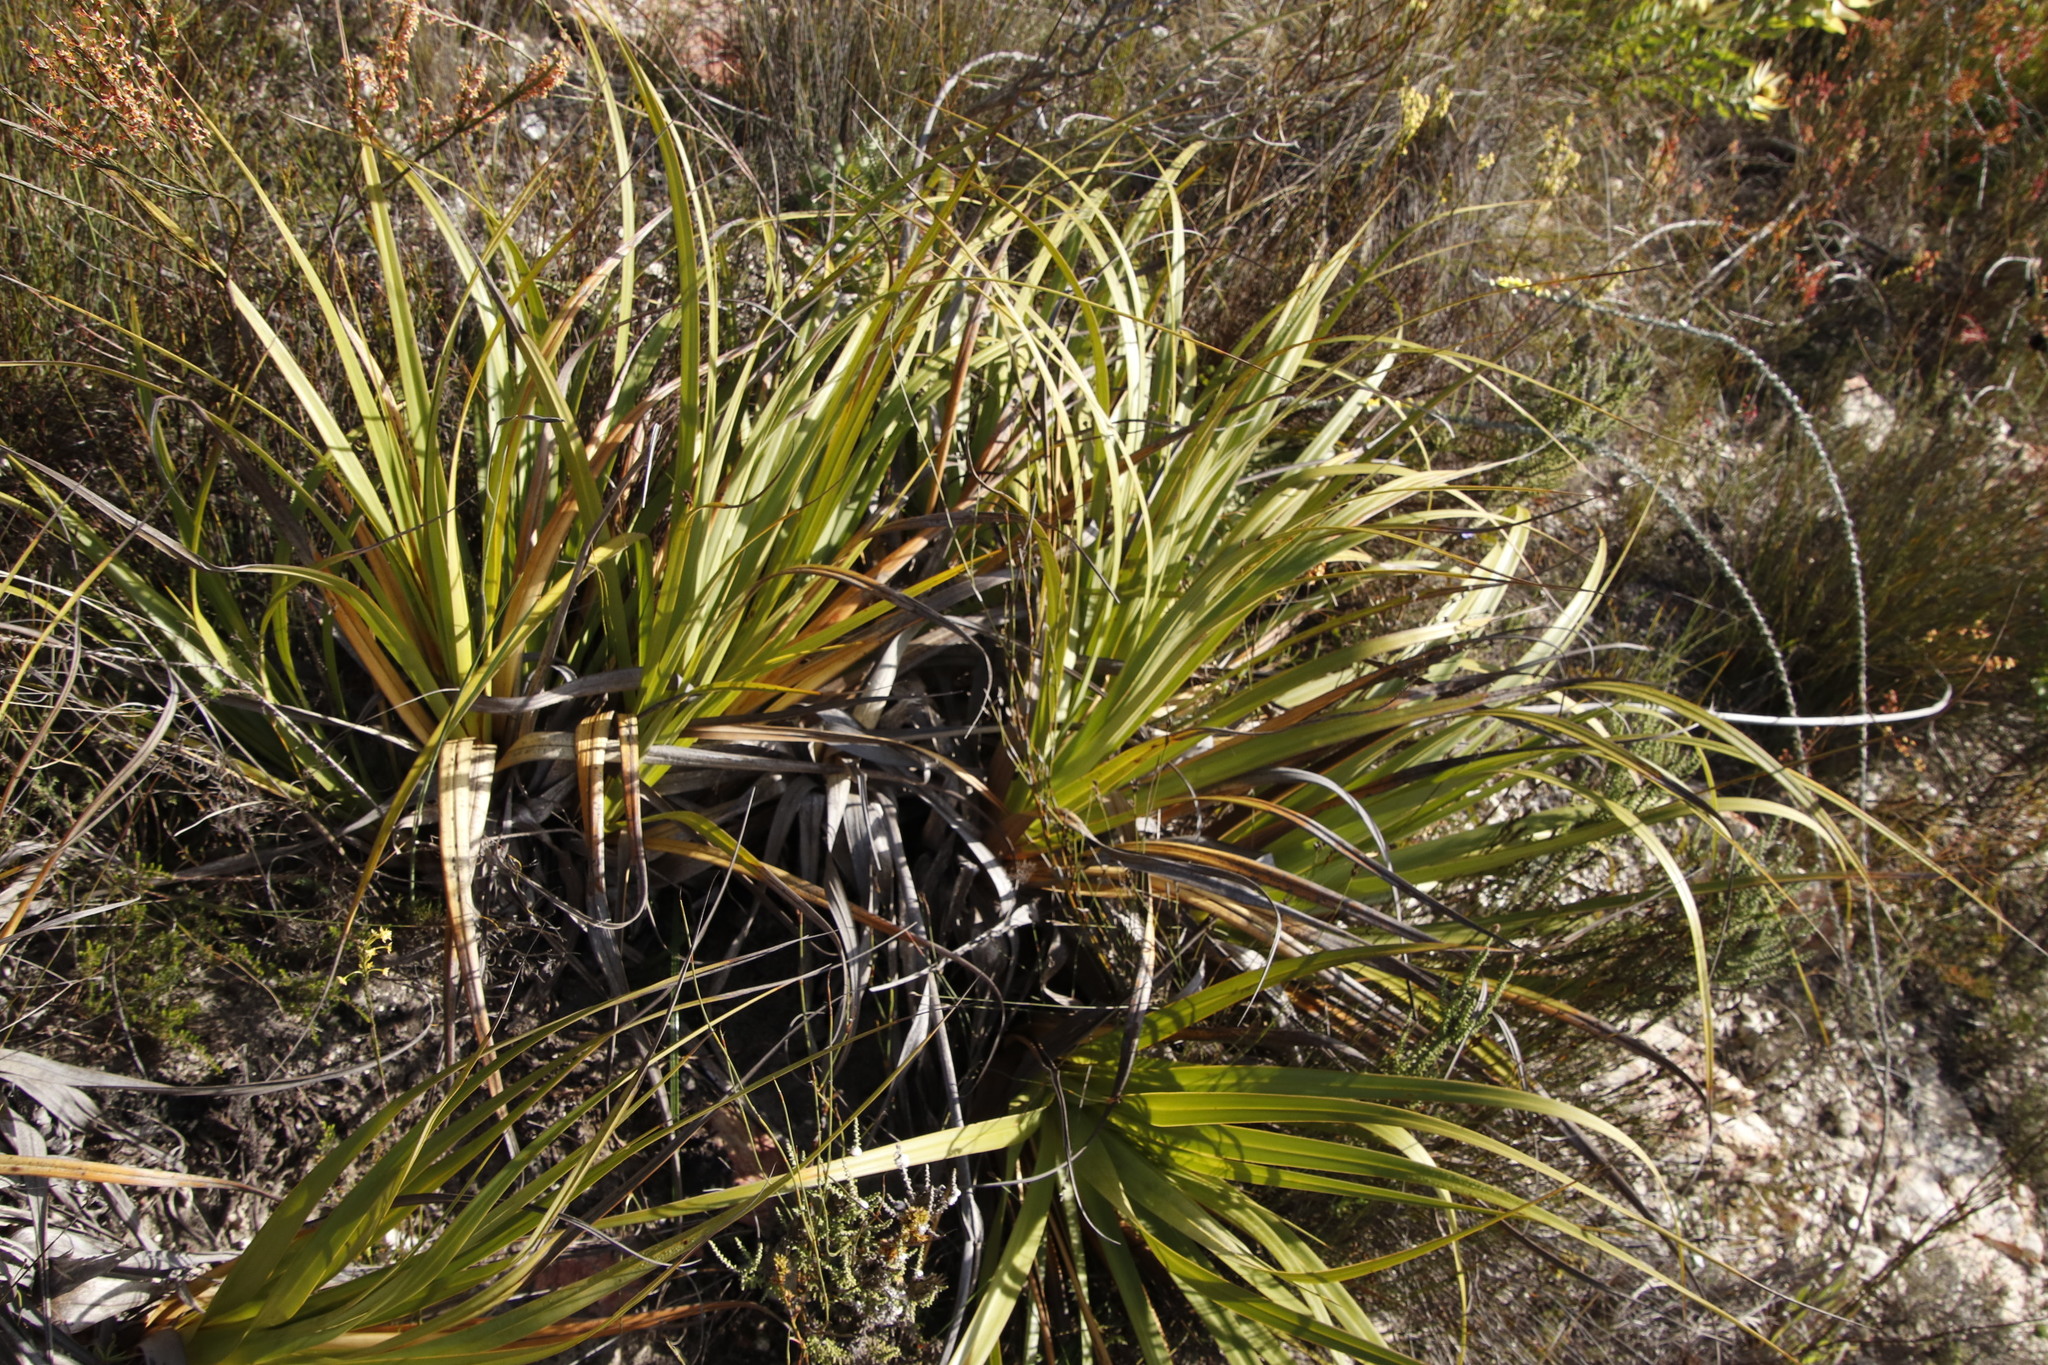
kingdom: Plantae
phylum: Tracheophyta
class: Liliopsida
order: Poales
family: Cyperaceae
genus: Tetraria
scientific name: Tetraria thermalis
